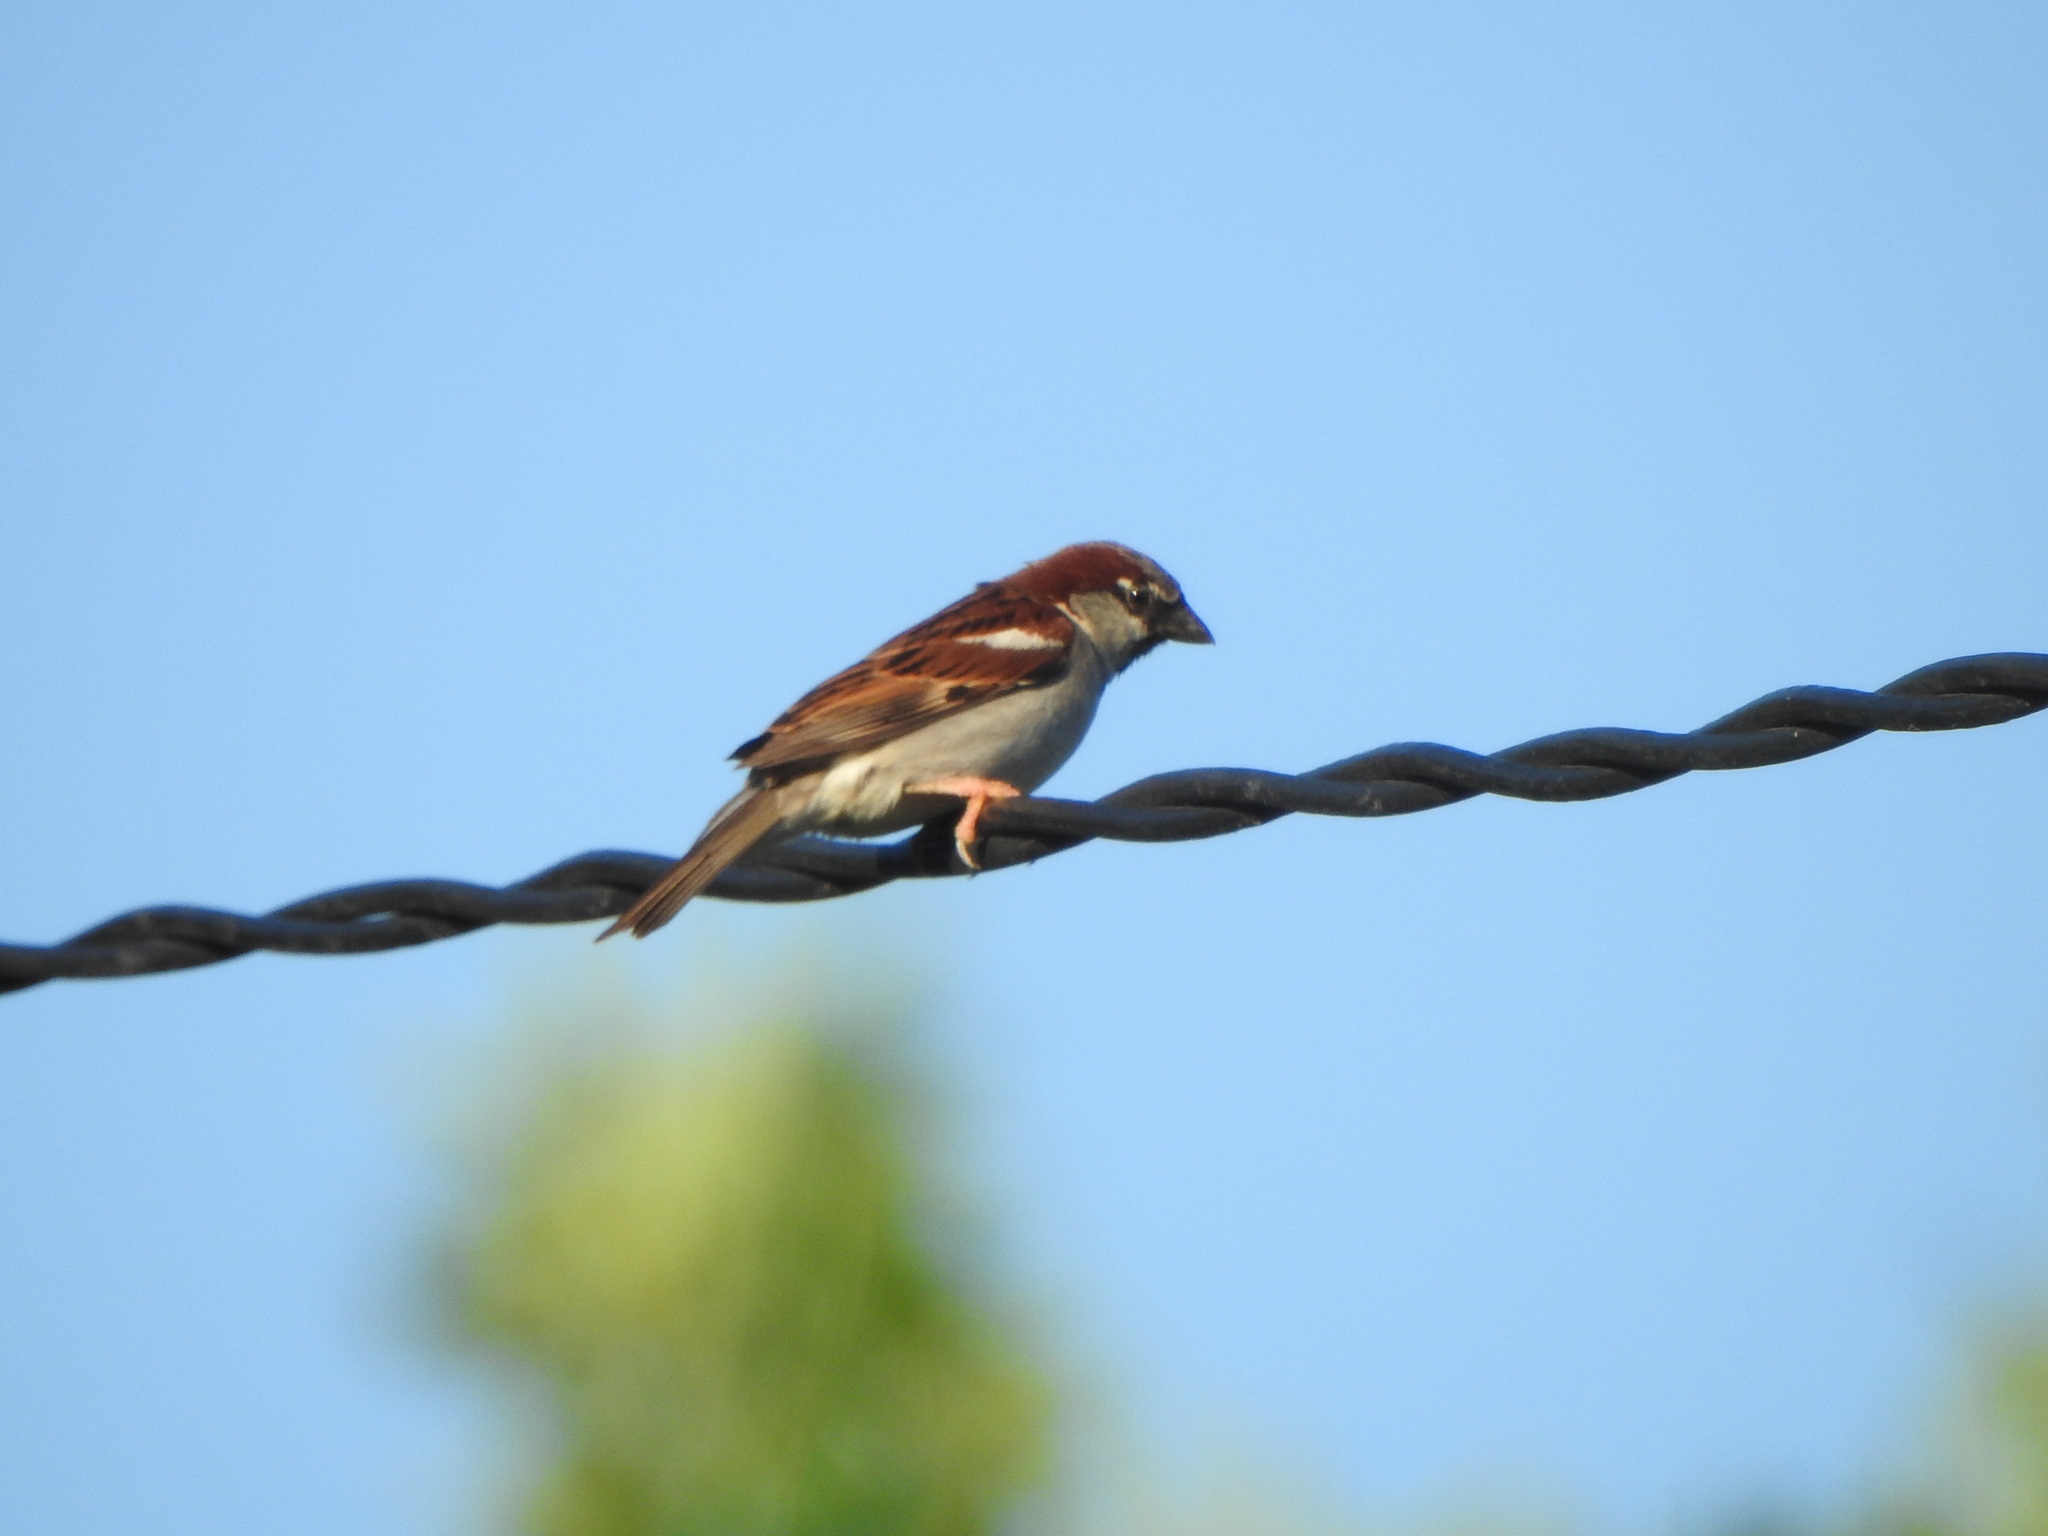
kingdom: Animalia
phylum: Chordata
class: Aves
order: Passeriformes
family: Passeridae
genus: Passer
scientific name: Passer domesticus
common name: House sparrow
